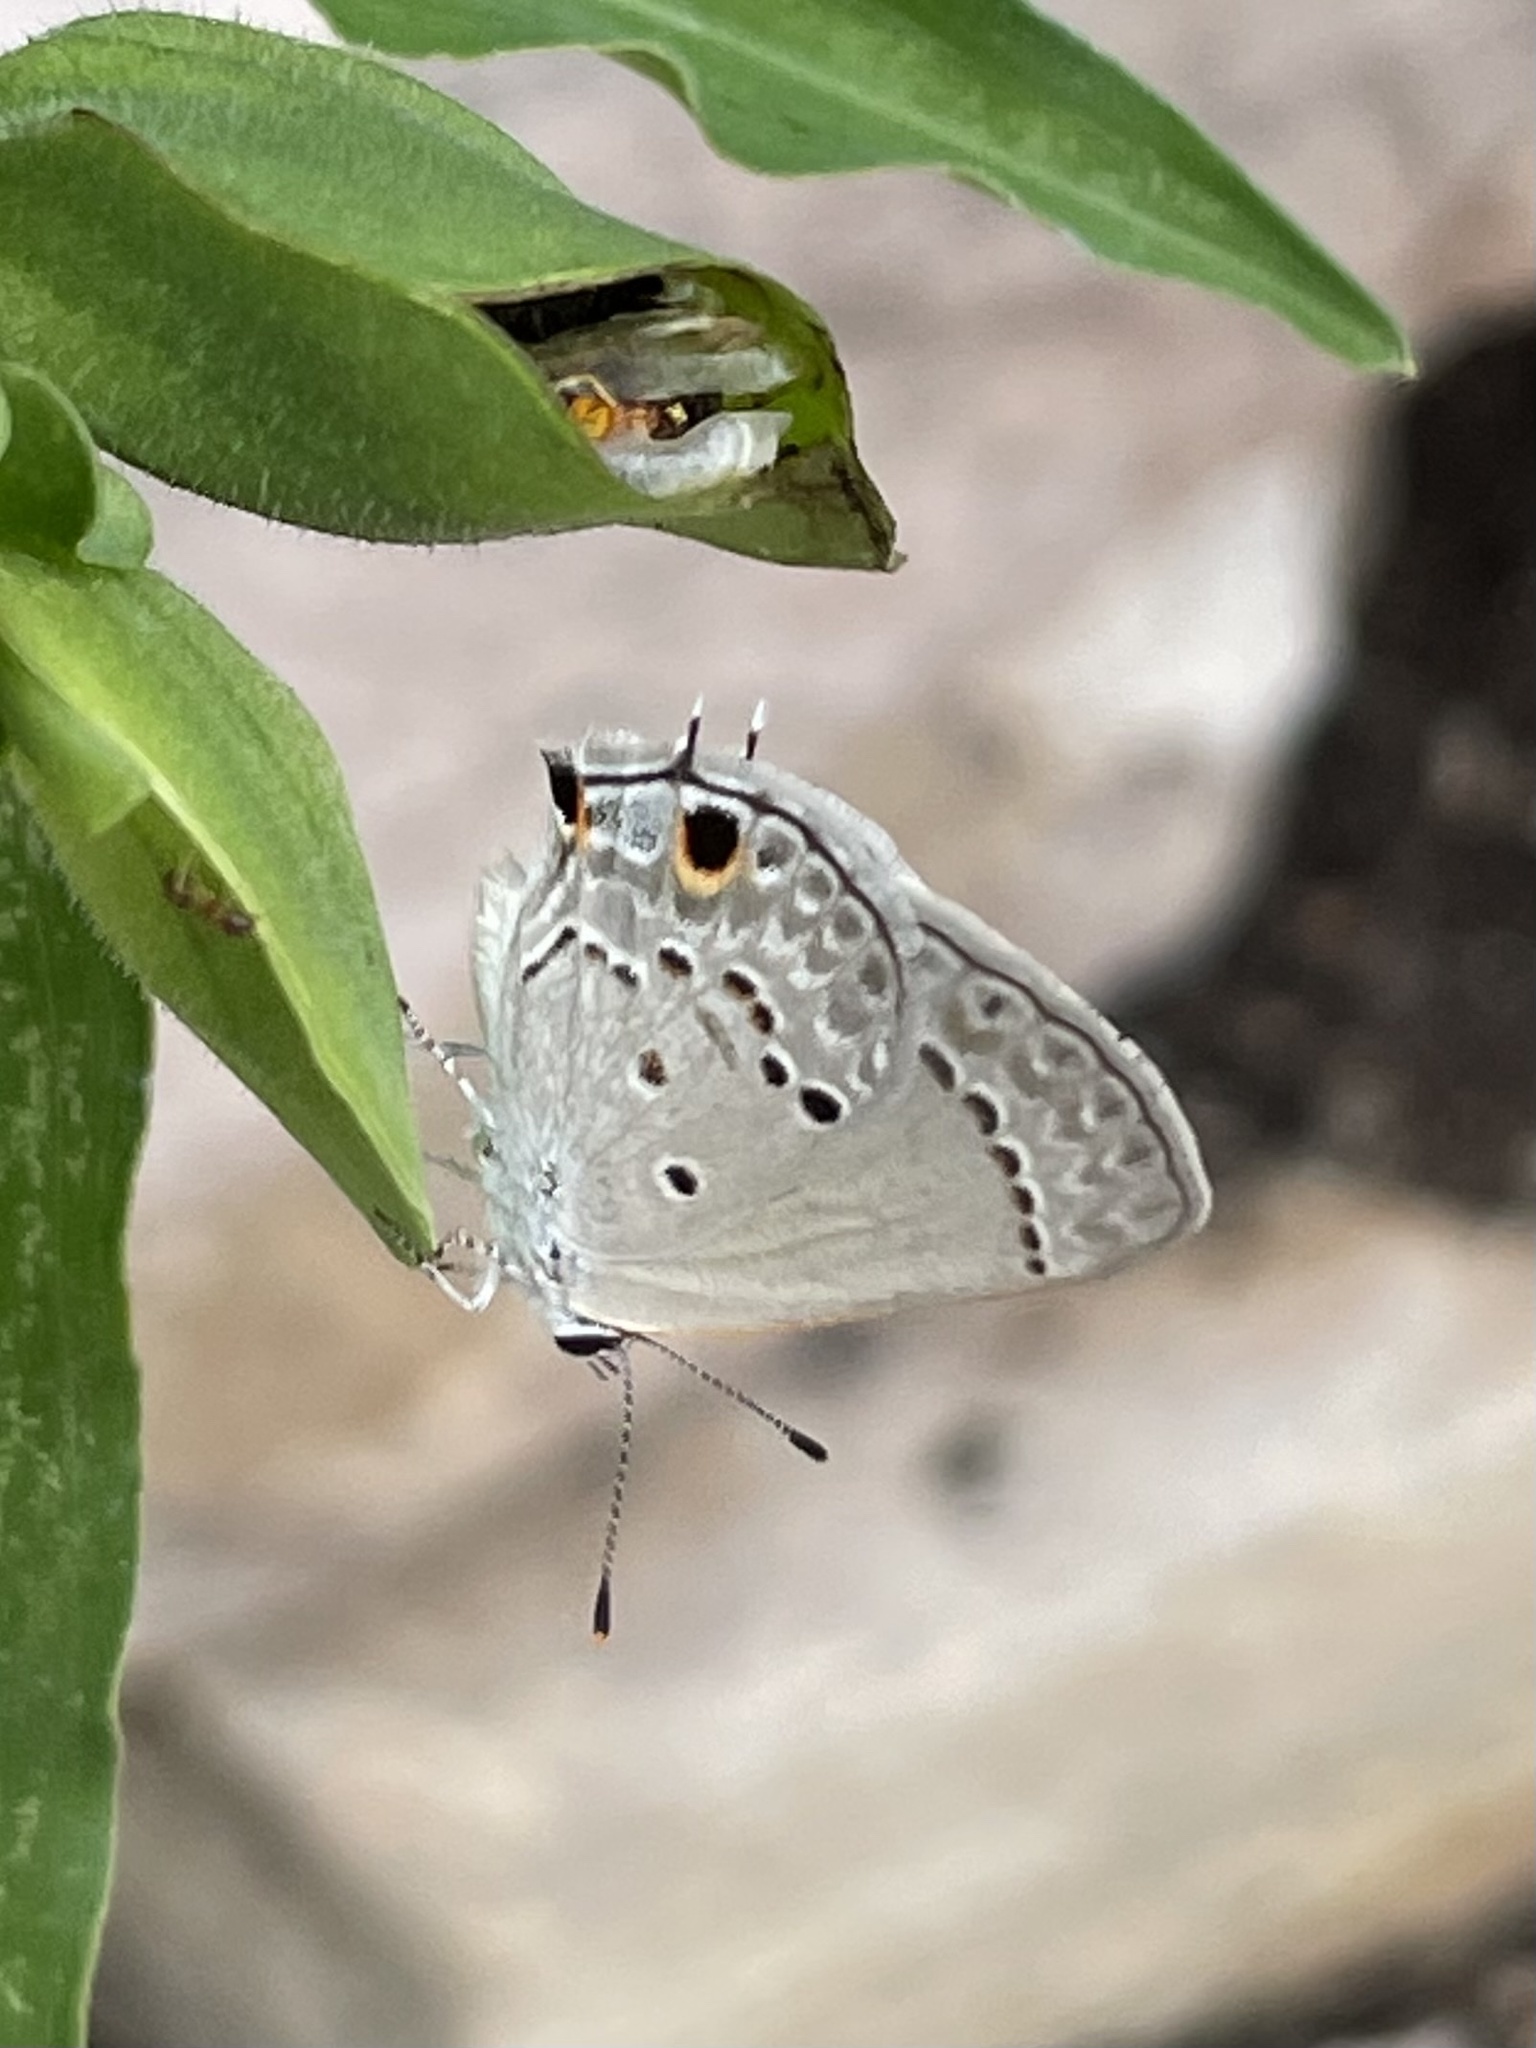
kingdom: Animalia
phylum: Arthropoda
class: Insecta
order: Lepidoptera
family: Lycaenidae
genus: Callicista
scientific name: Callicista columella
